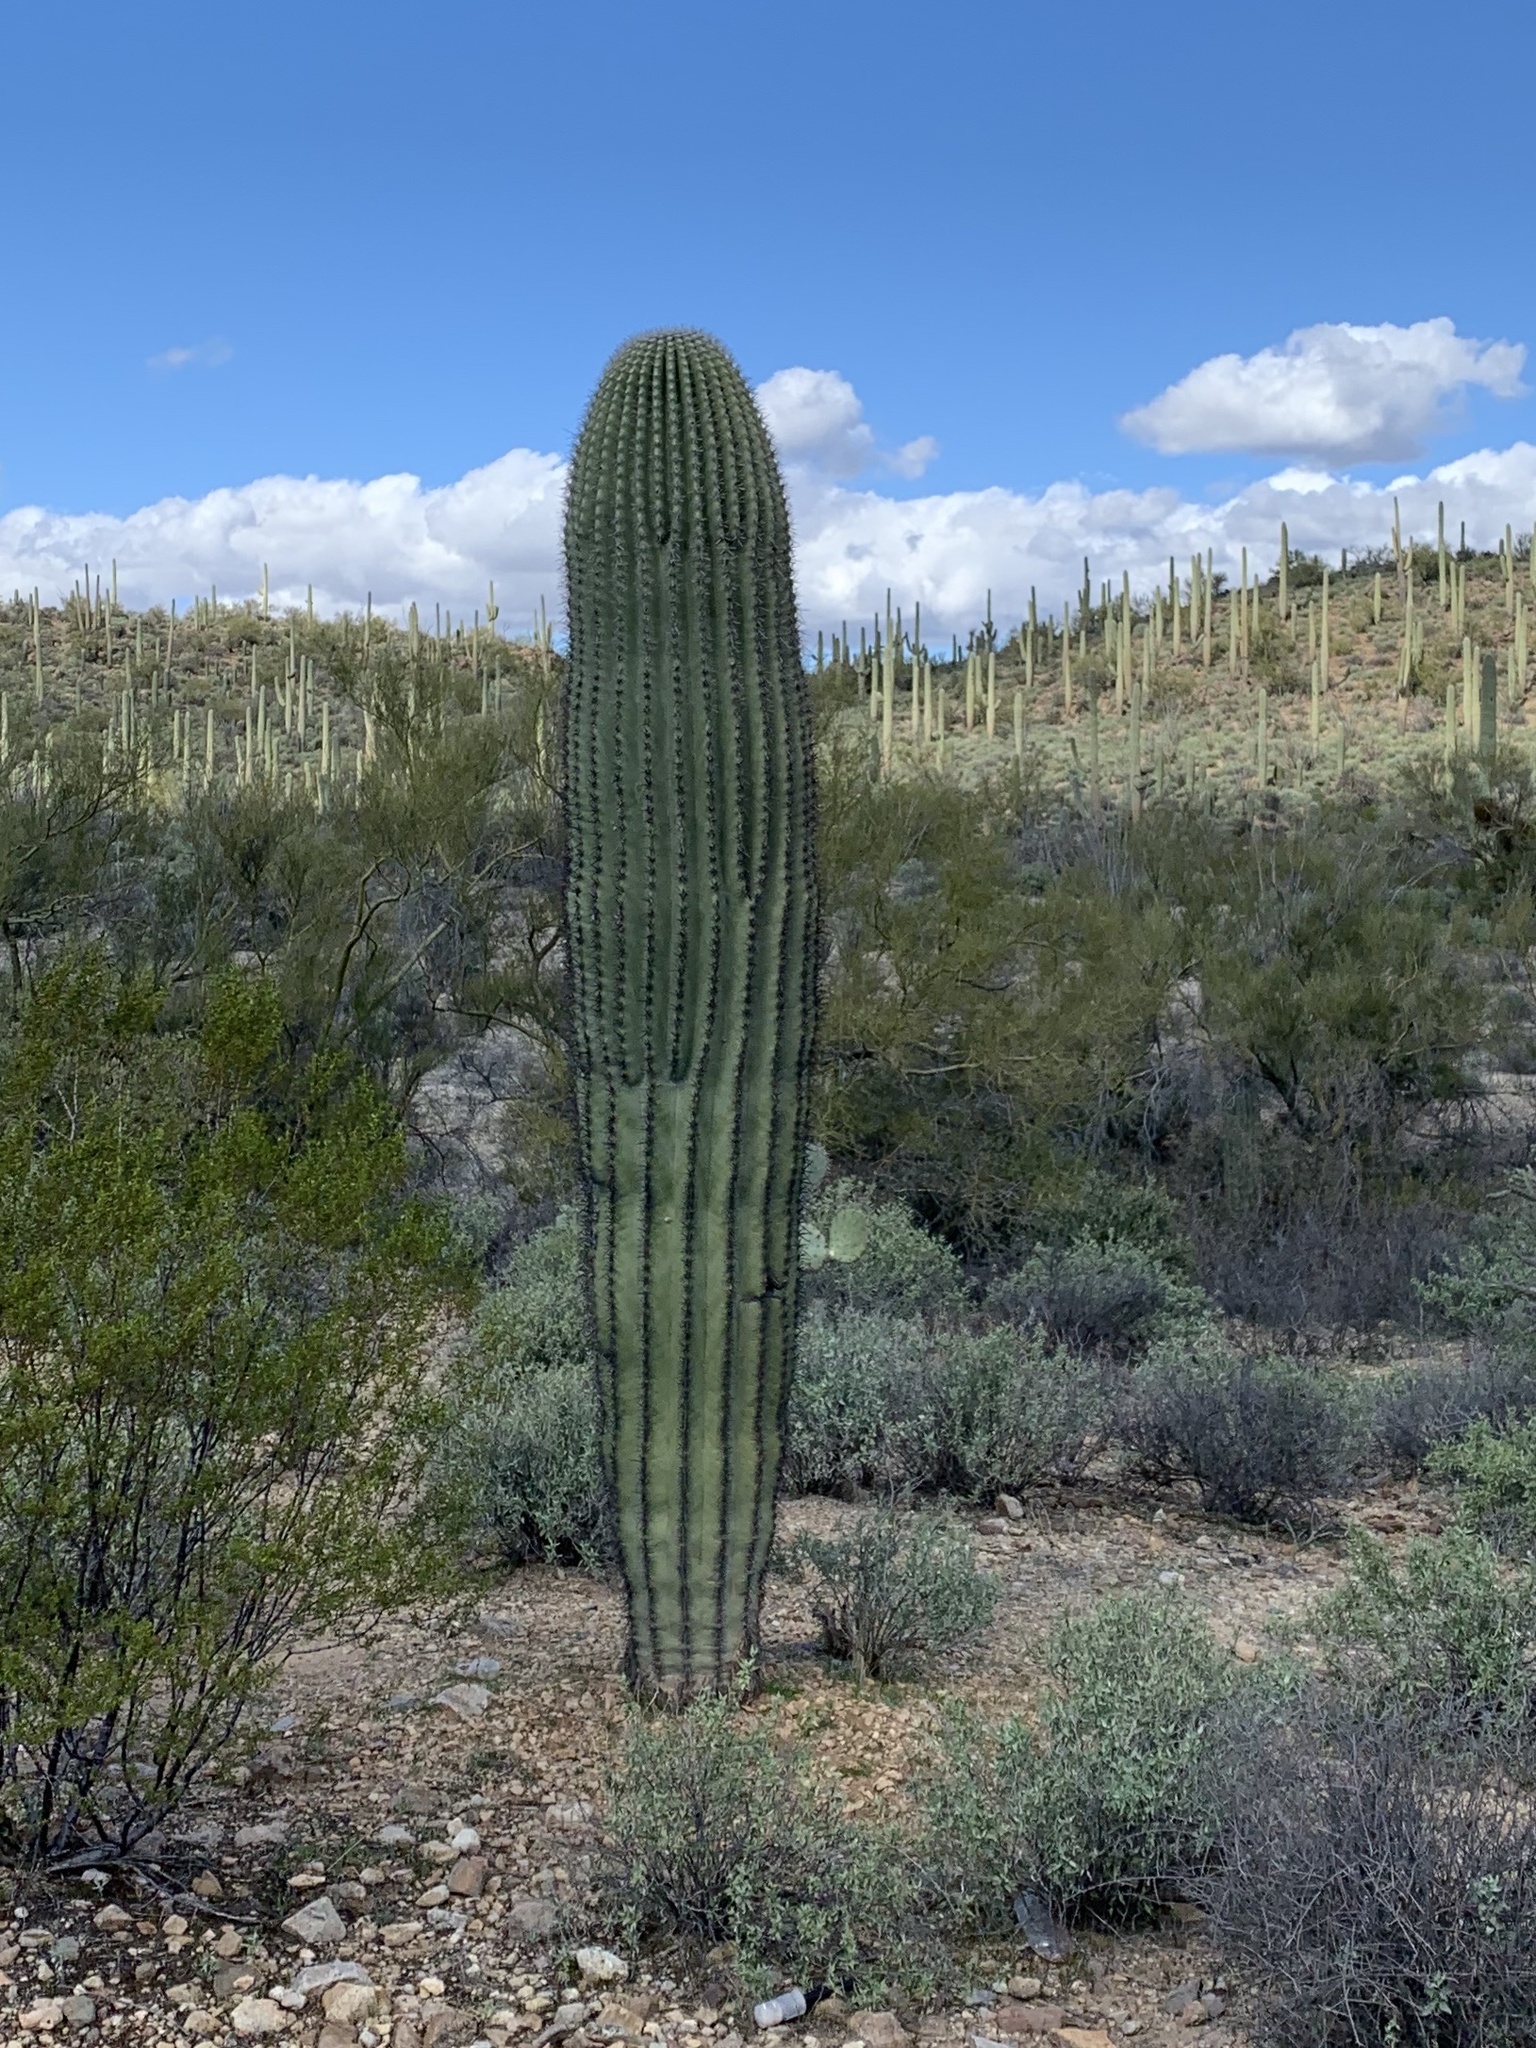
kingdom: Plantae
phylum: Tracheophyta
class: Magnoliopsida
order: Caryophyllales
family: Cactaceae
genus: Carnegiea
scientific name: Carnegiea gigantea
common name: Saguaro
